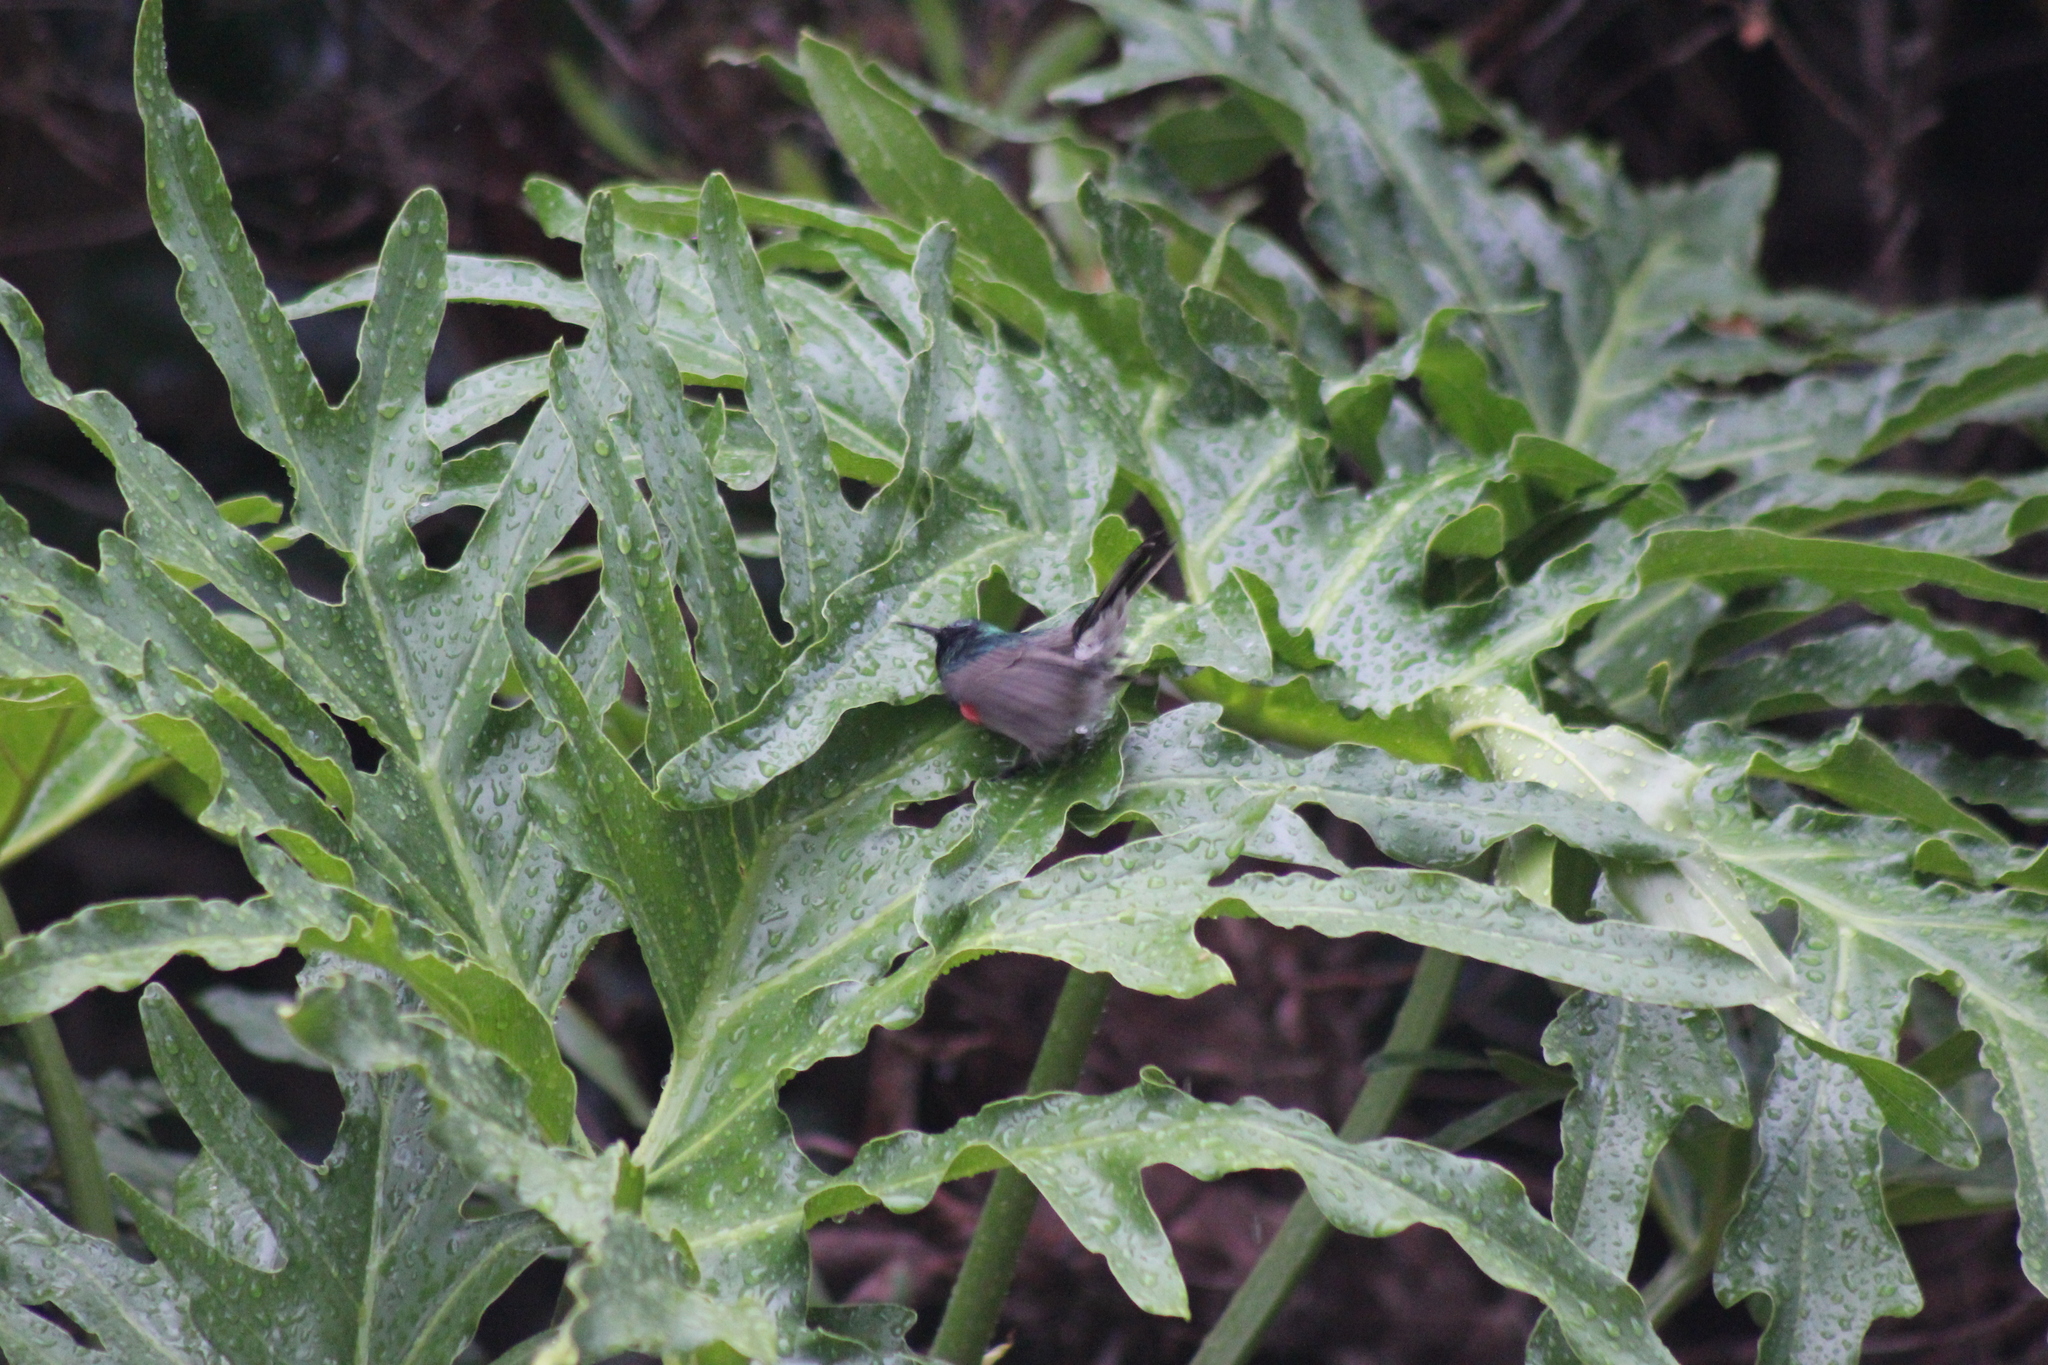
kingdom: Animalia
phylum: Chordata
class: Aves
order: Passeriformes
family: Nectariniidae
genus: Cinnyris
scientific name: Cinnyris chalybeus
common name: Southern double-collared sunbird
